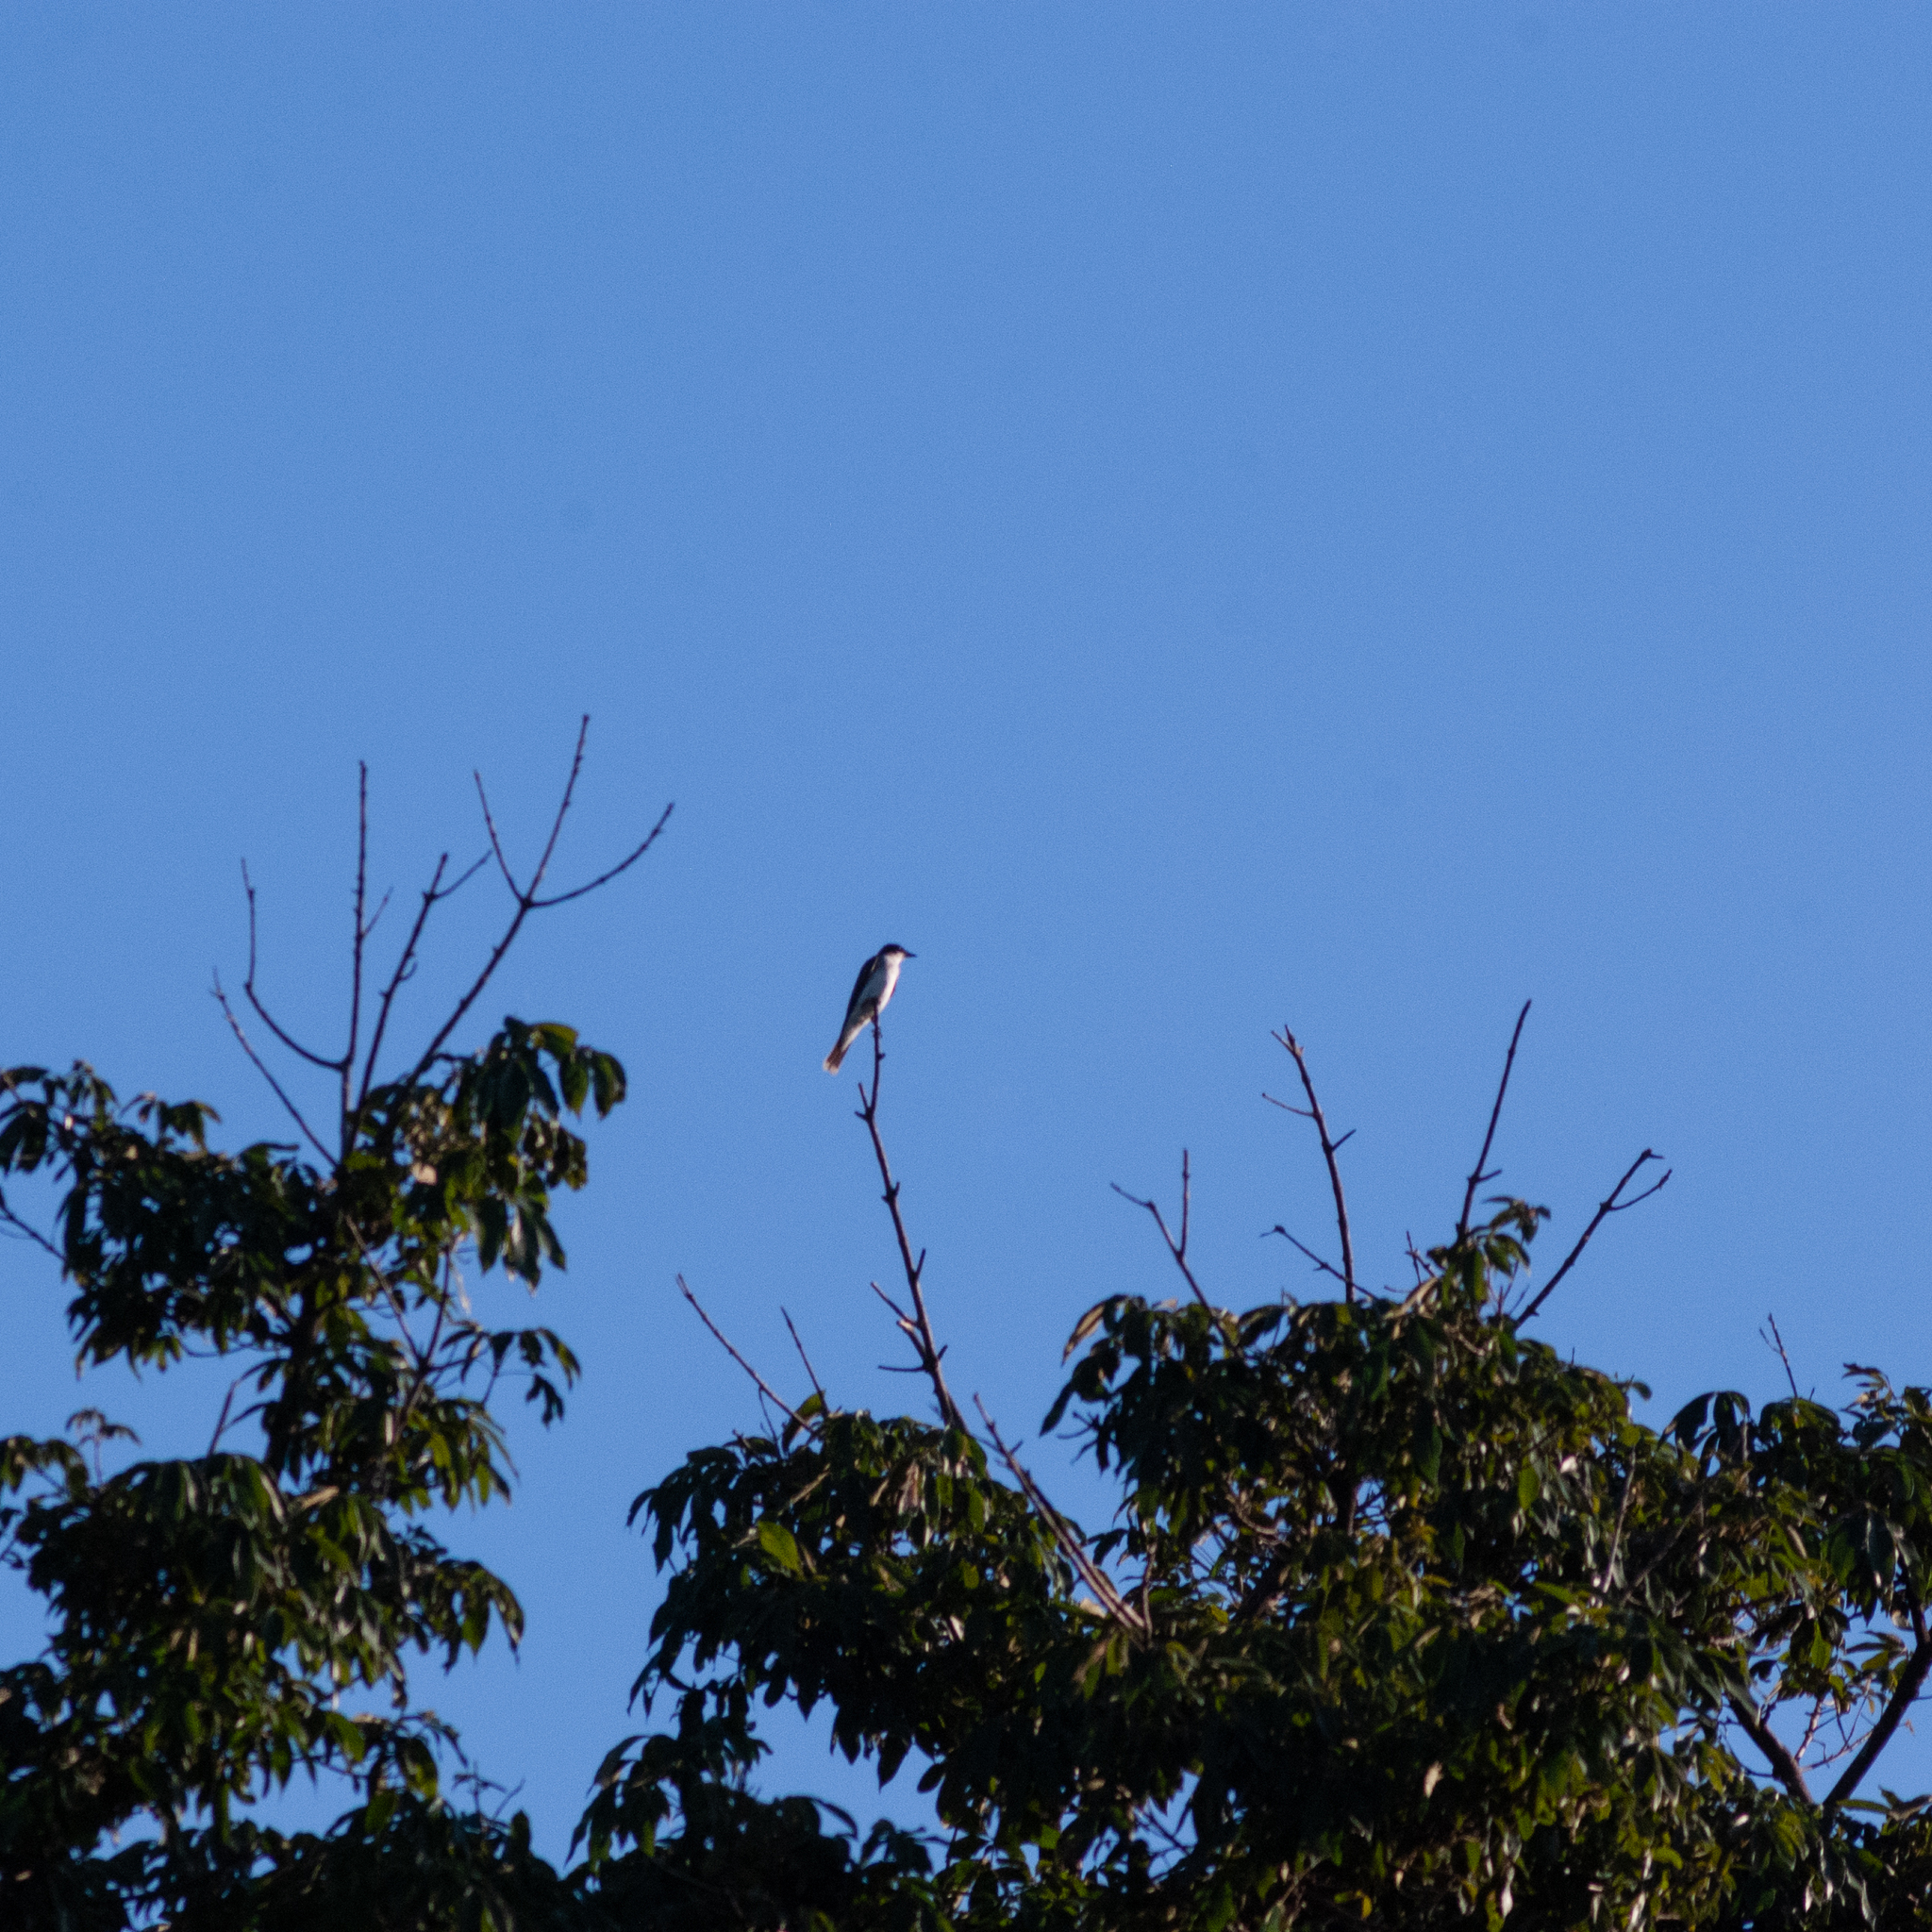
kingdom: Animalia
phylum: Chordata
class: Aves
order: Passeriformes
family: Tyrannidae
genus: Tyrannus
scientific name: Tyrannus tyrannus
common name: Eastern kingbird
